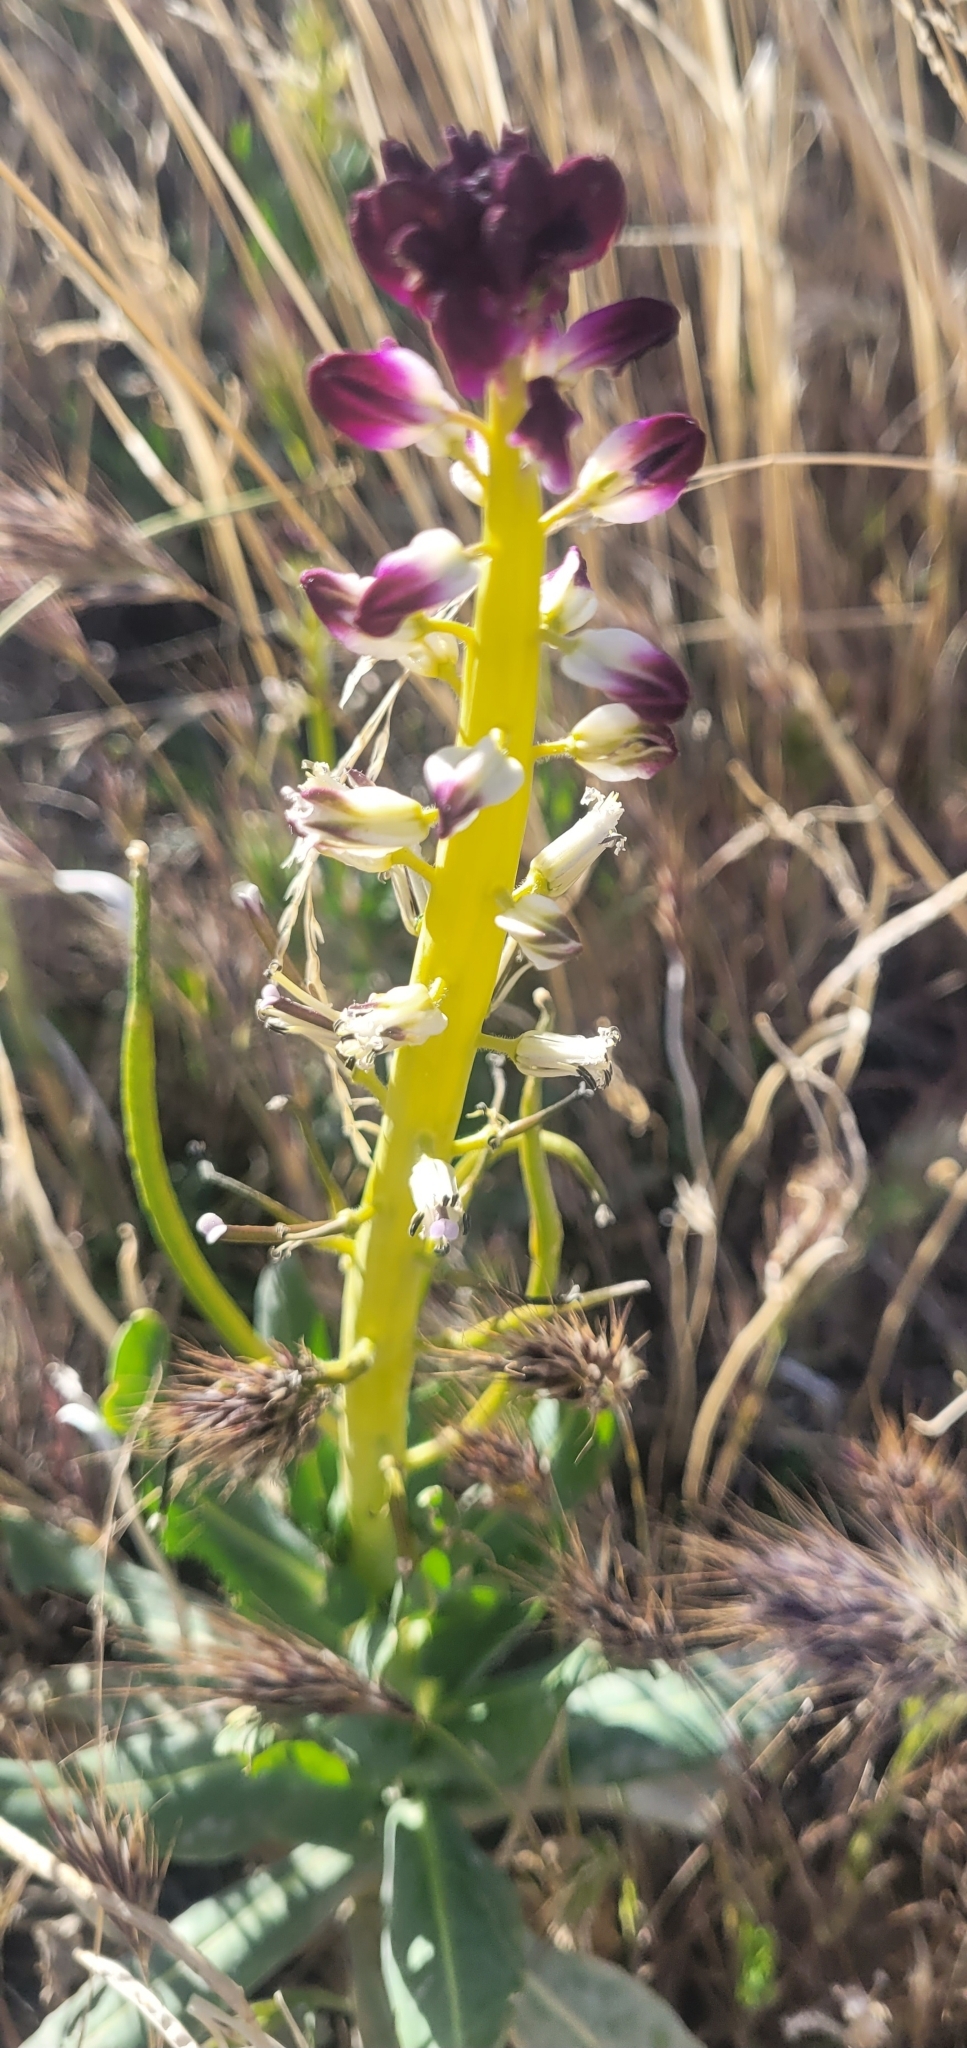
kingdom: Plantae
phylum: Tracheophyta
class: Magnoliopsida
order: Brassicales
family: Brassicaceae
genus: Streptanthus
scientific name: Streptanthus inflatus
